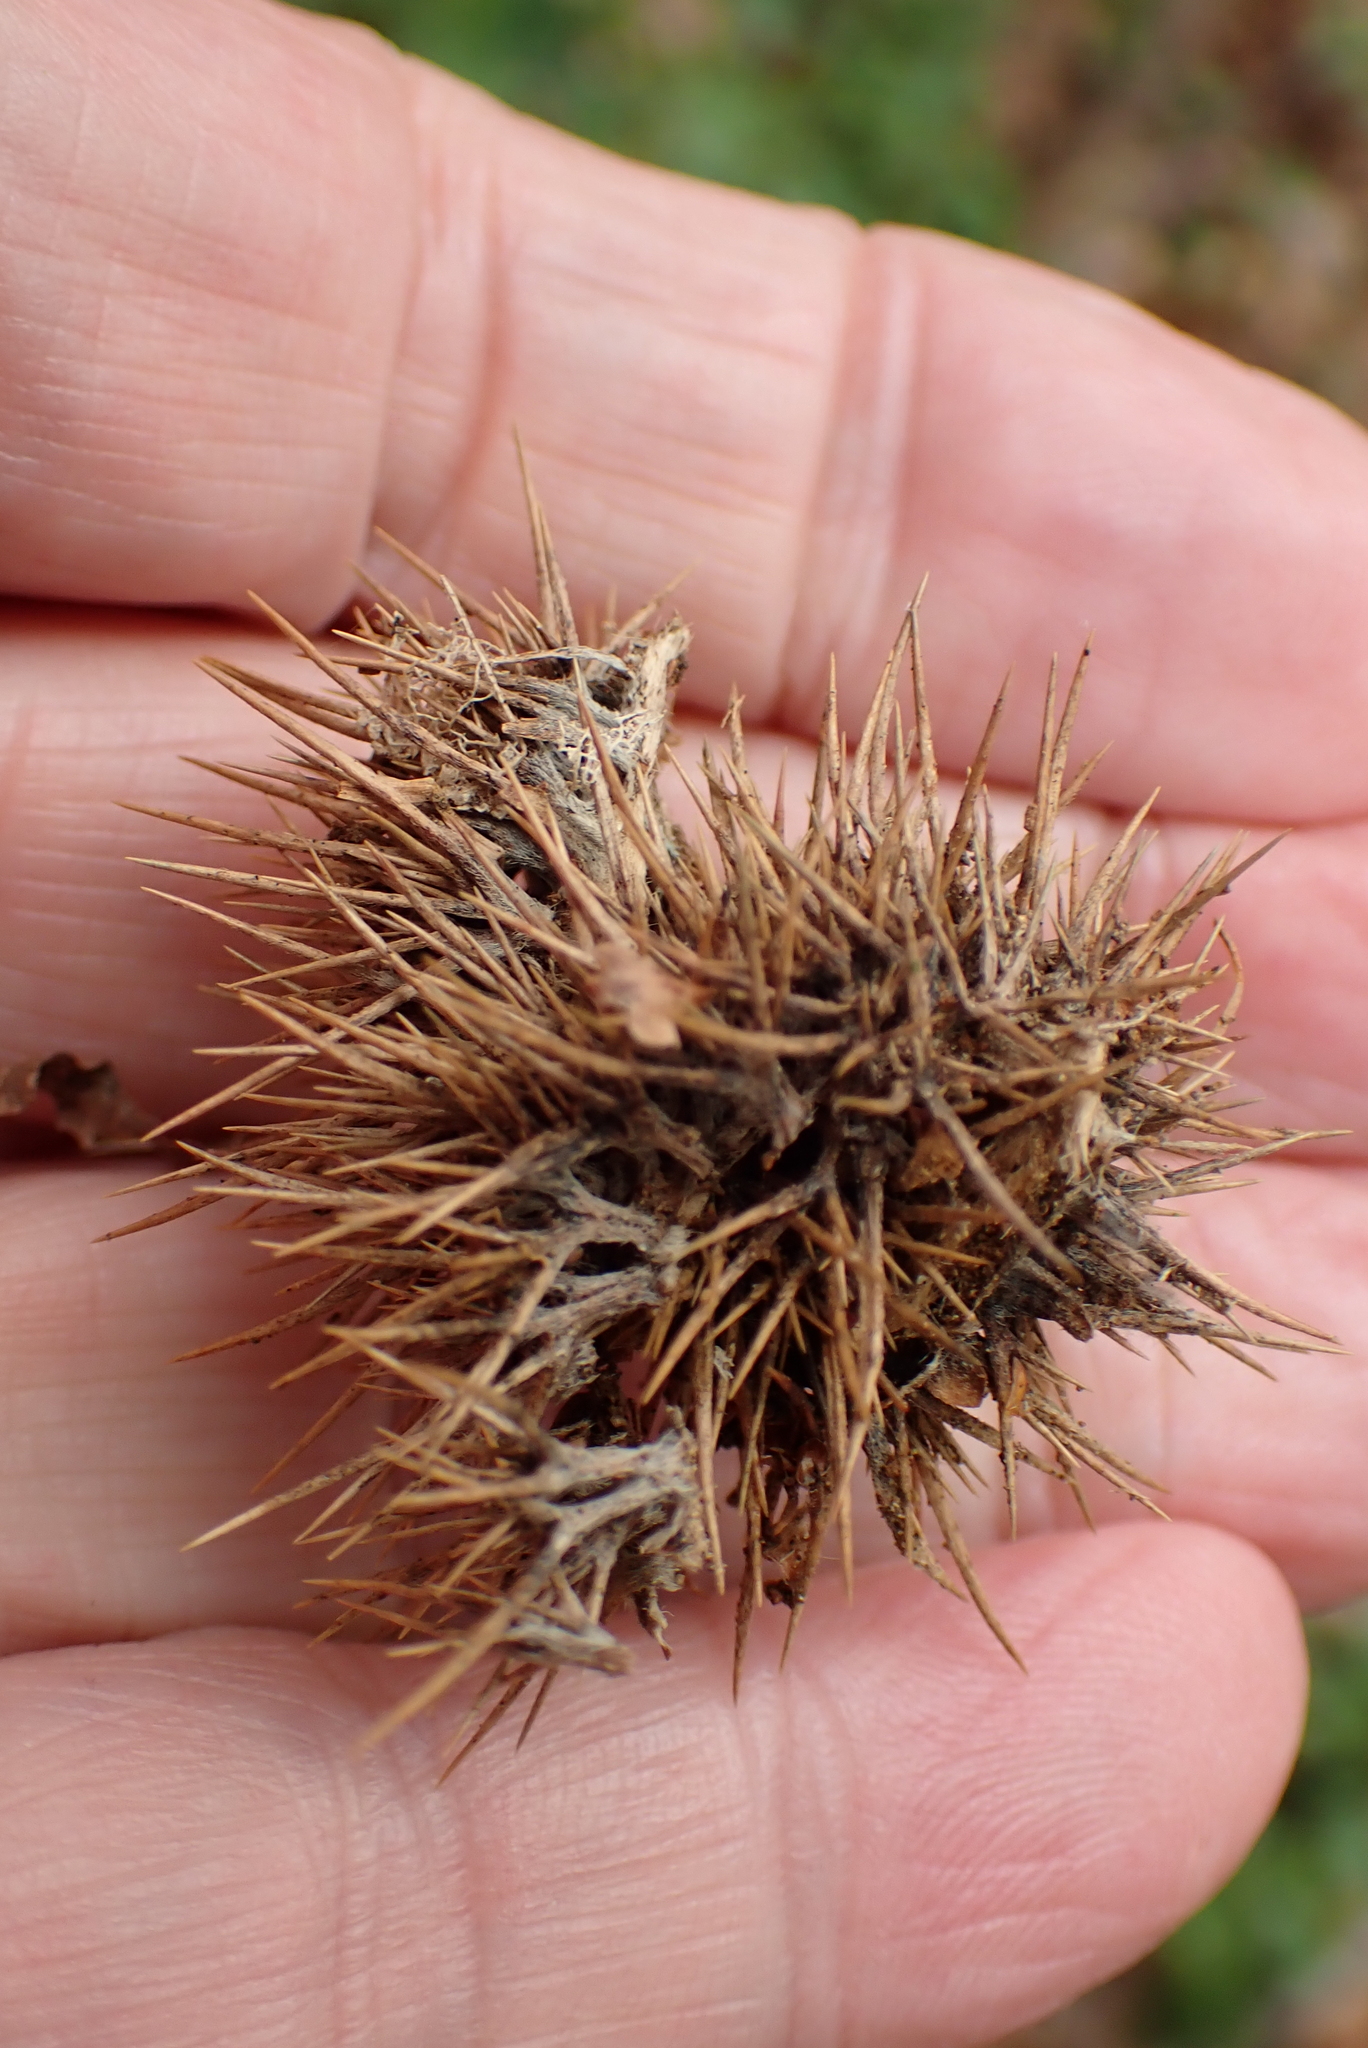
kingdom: Plantae
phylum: Tracheophyta
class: Magnoliopsida
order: Fagales
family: Fagaceae
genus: Castanea
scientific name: Castanea sativa
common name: Sweet chestnut
